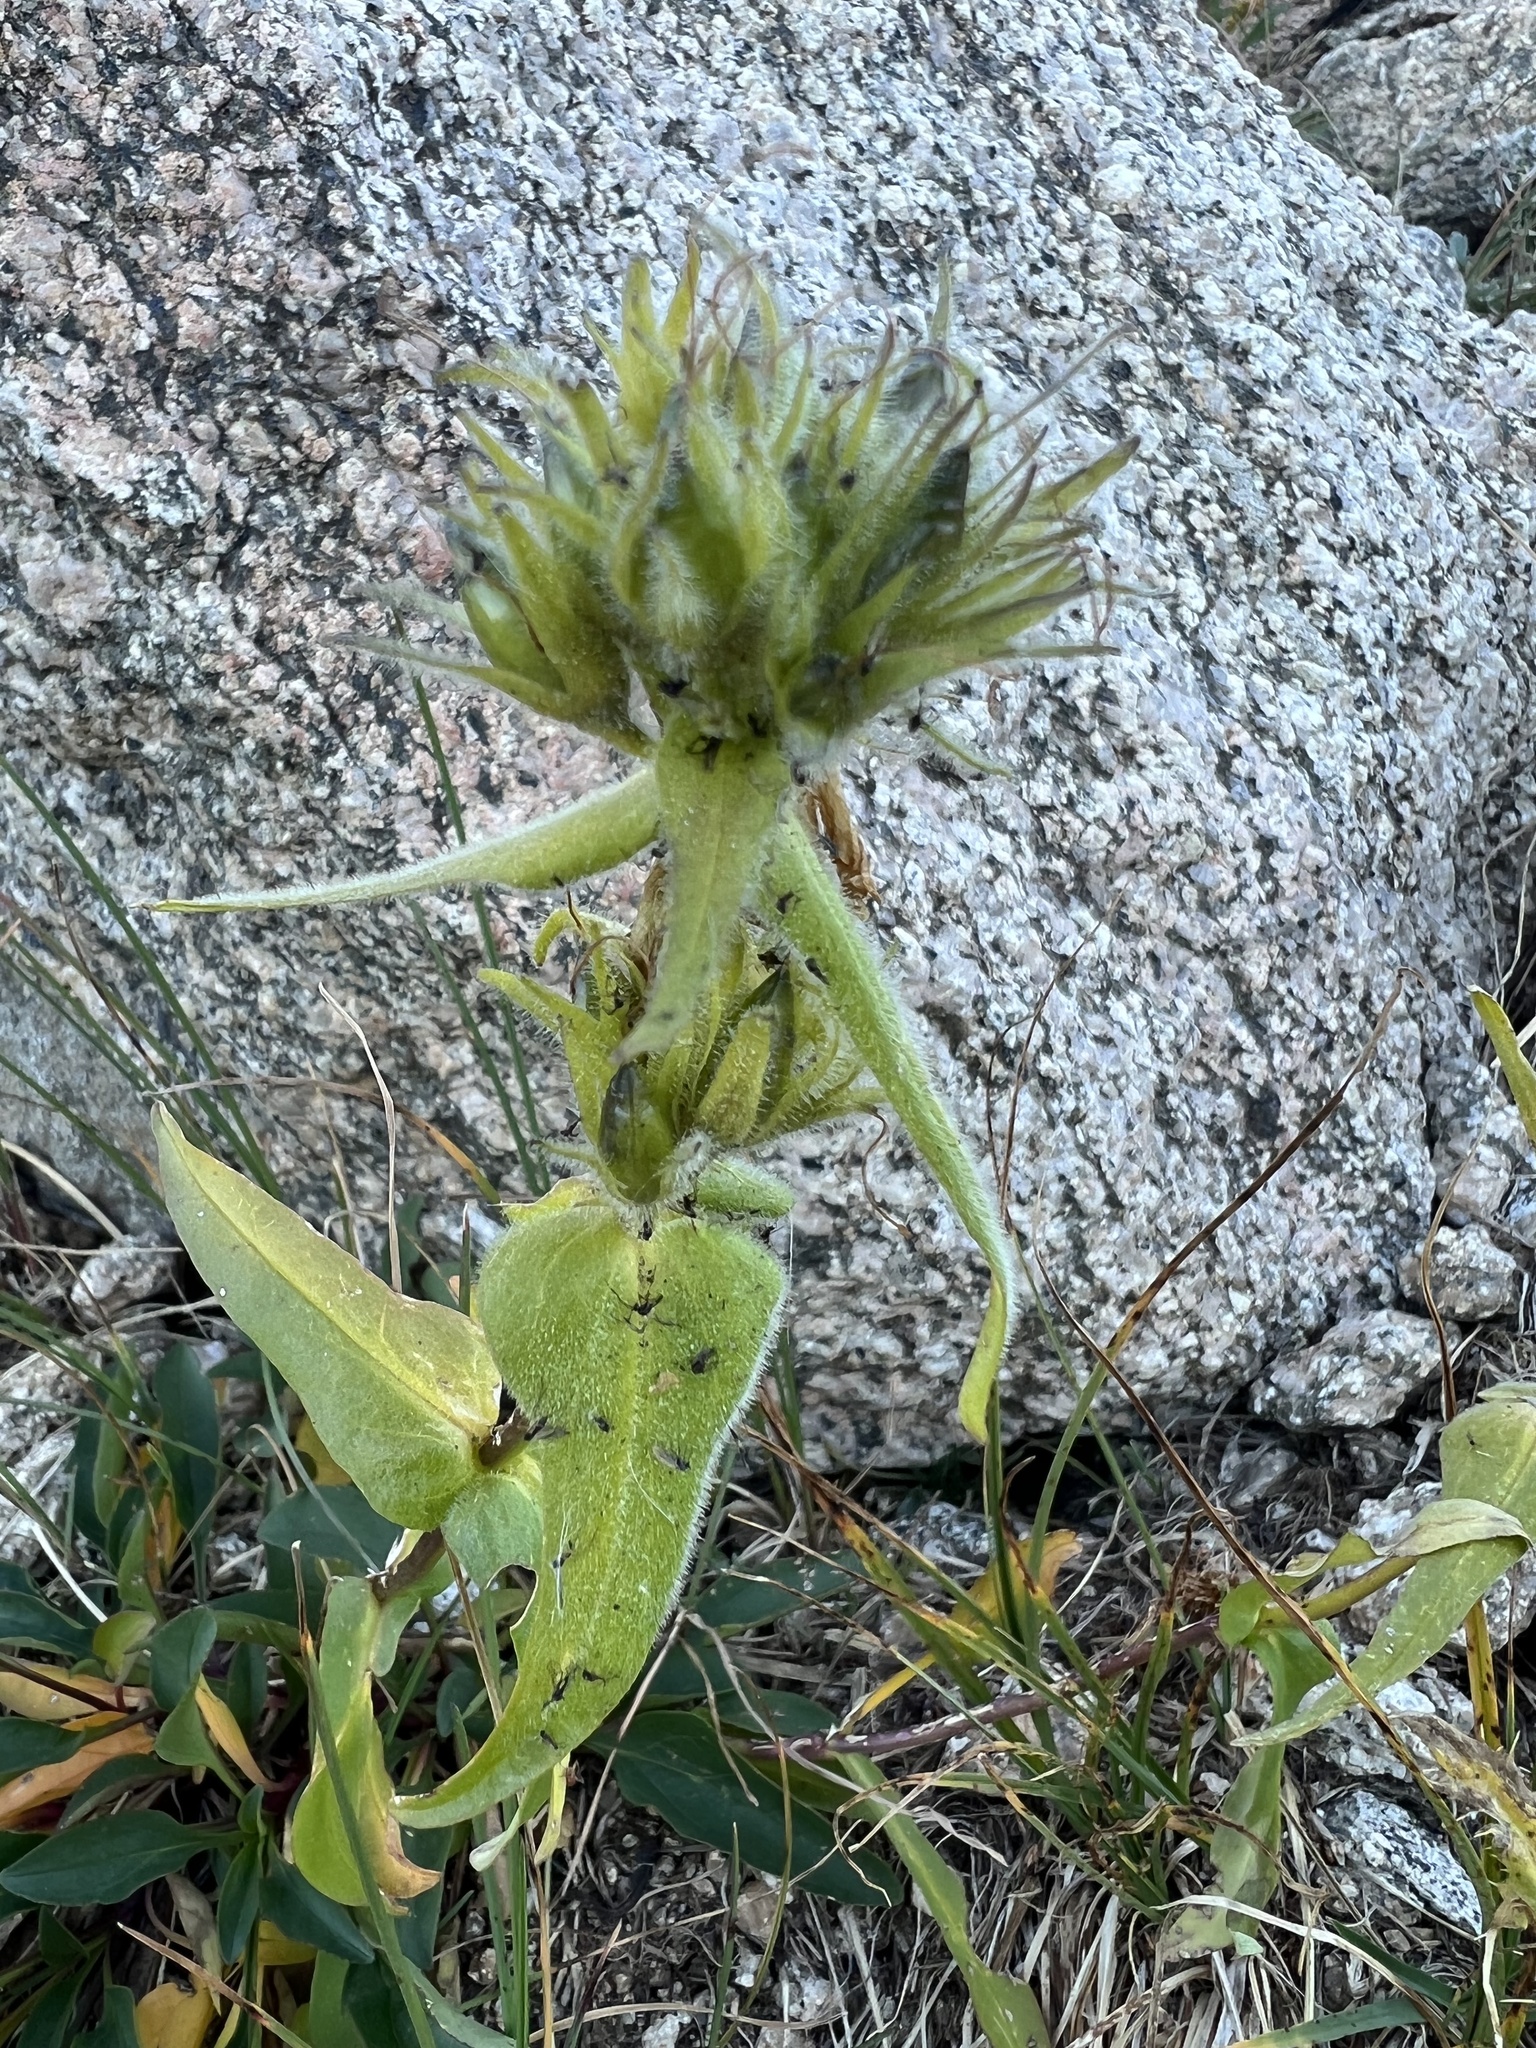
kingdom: Plantae
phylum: Tracheophyta
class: Magnoliopsida
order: Lamiales
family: Plantaginaceae
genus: Penstemon
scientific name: Penstemon whippleanus
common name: Whipple's penstemon
